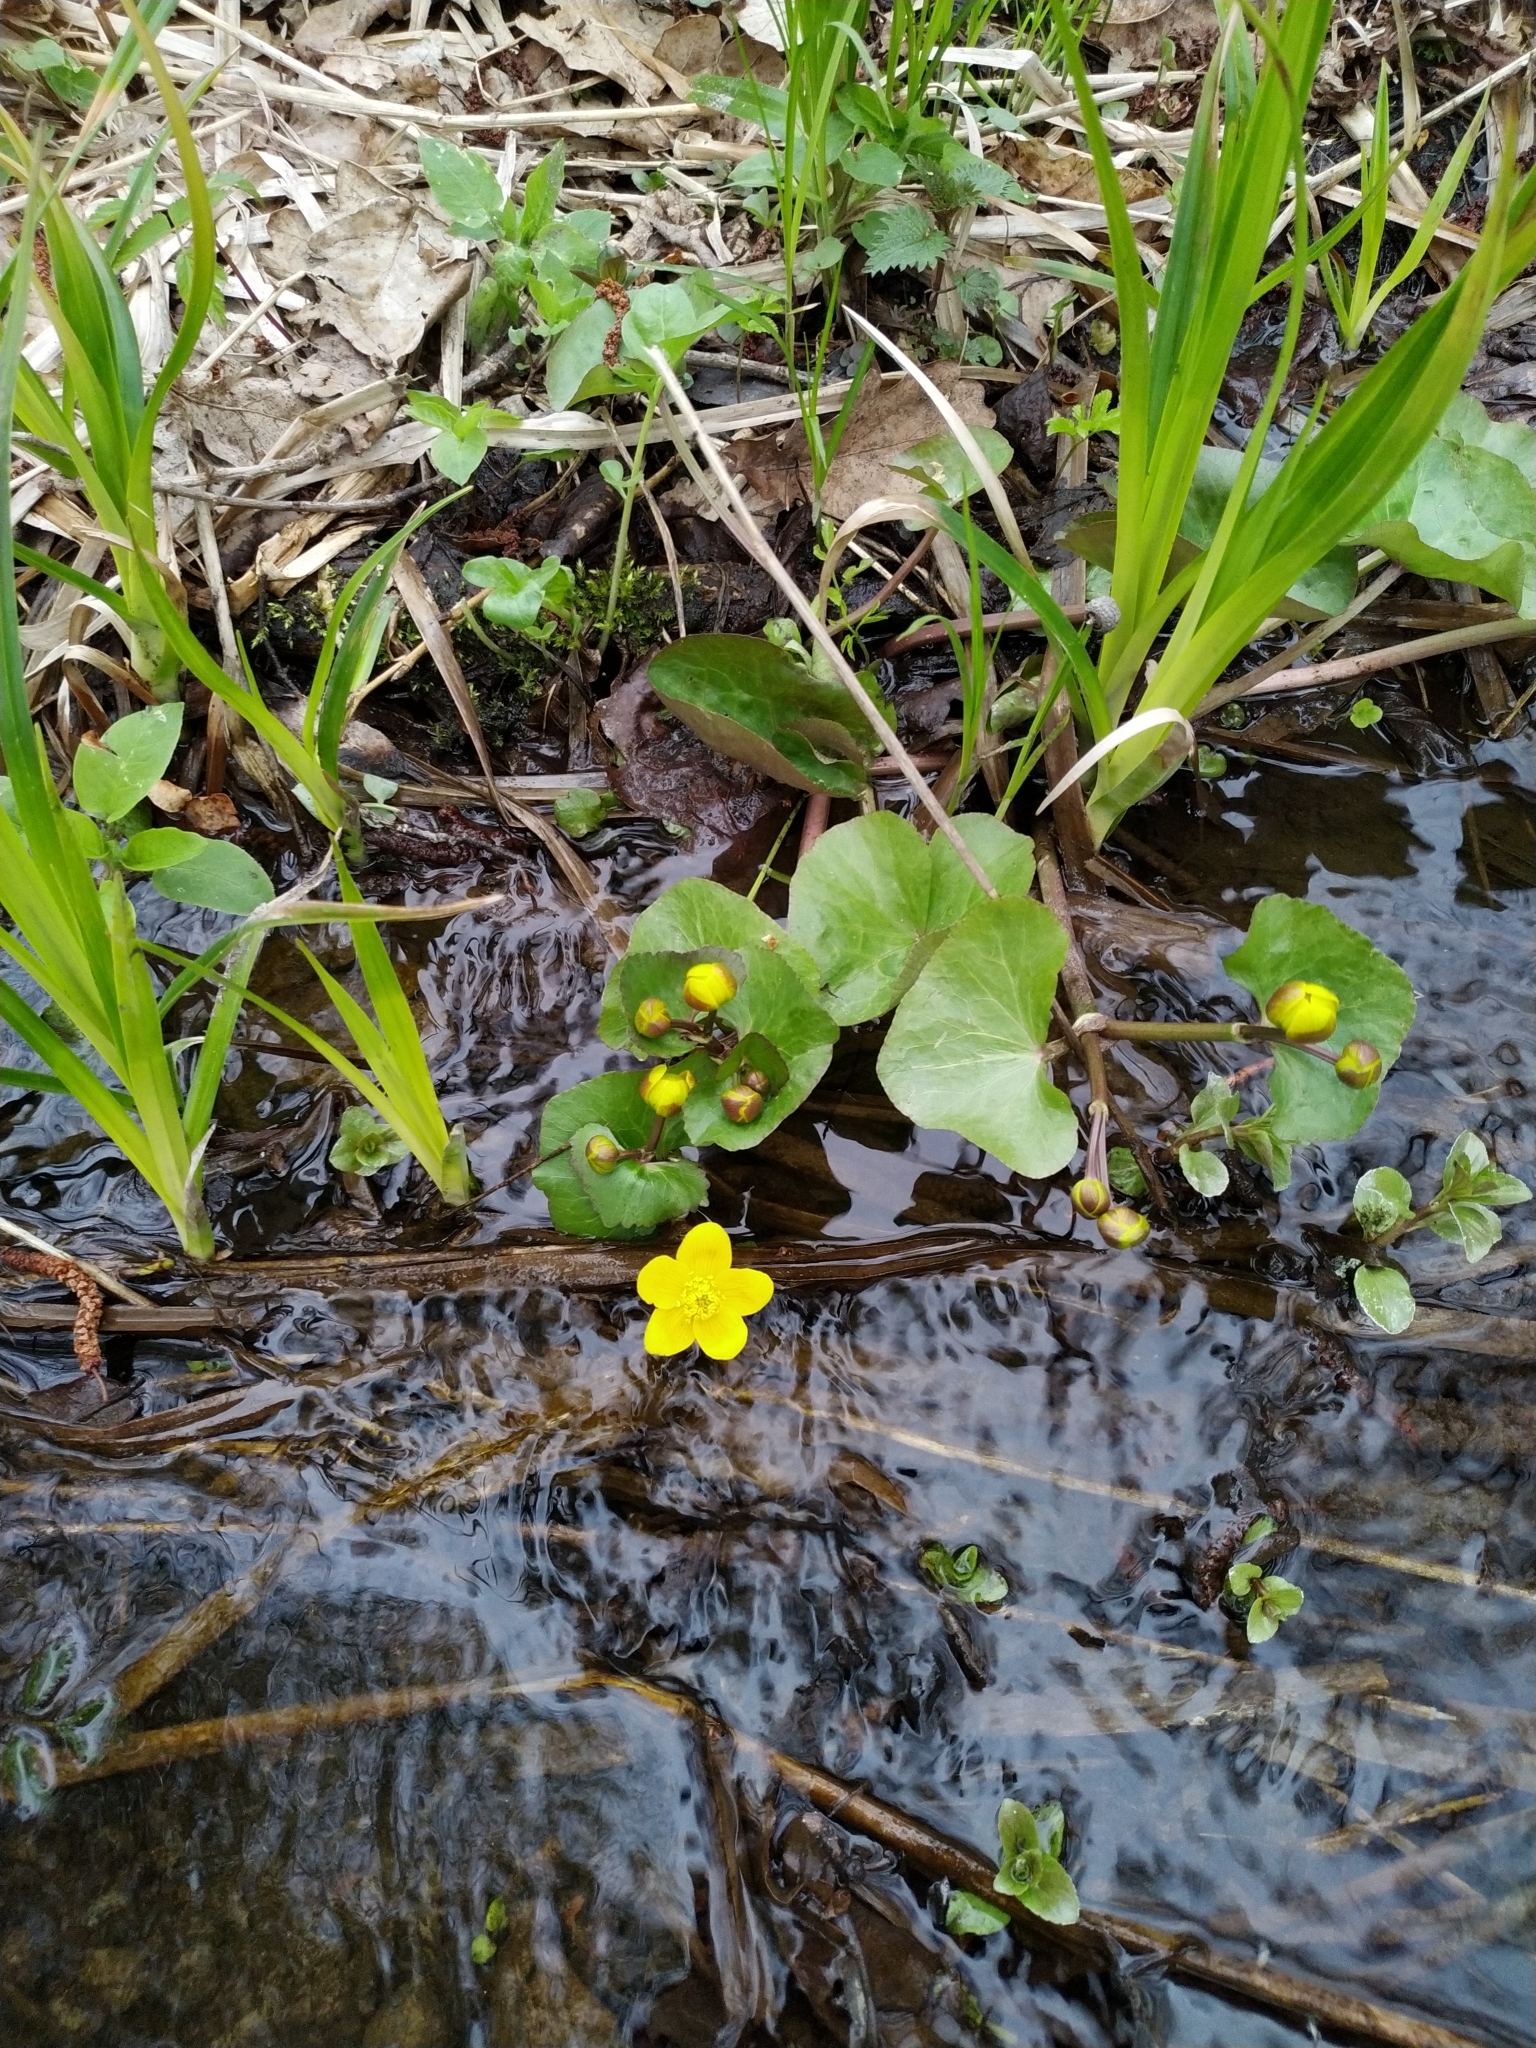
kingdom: Plantae
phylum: Tracheophyta
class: Magnoliopsida
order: Ranunculales
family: Ranunculaceae
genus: Caltha
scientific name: Caltha palustris
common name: Marsh marigold
